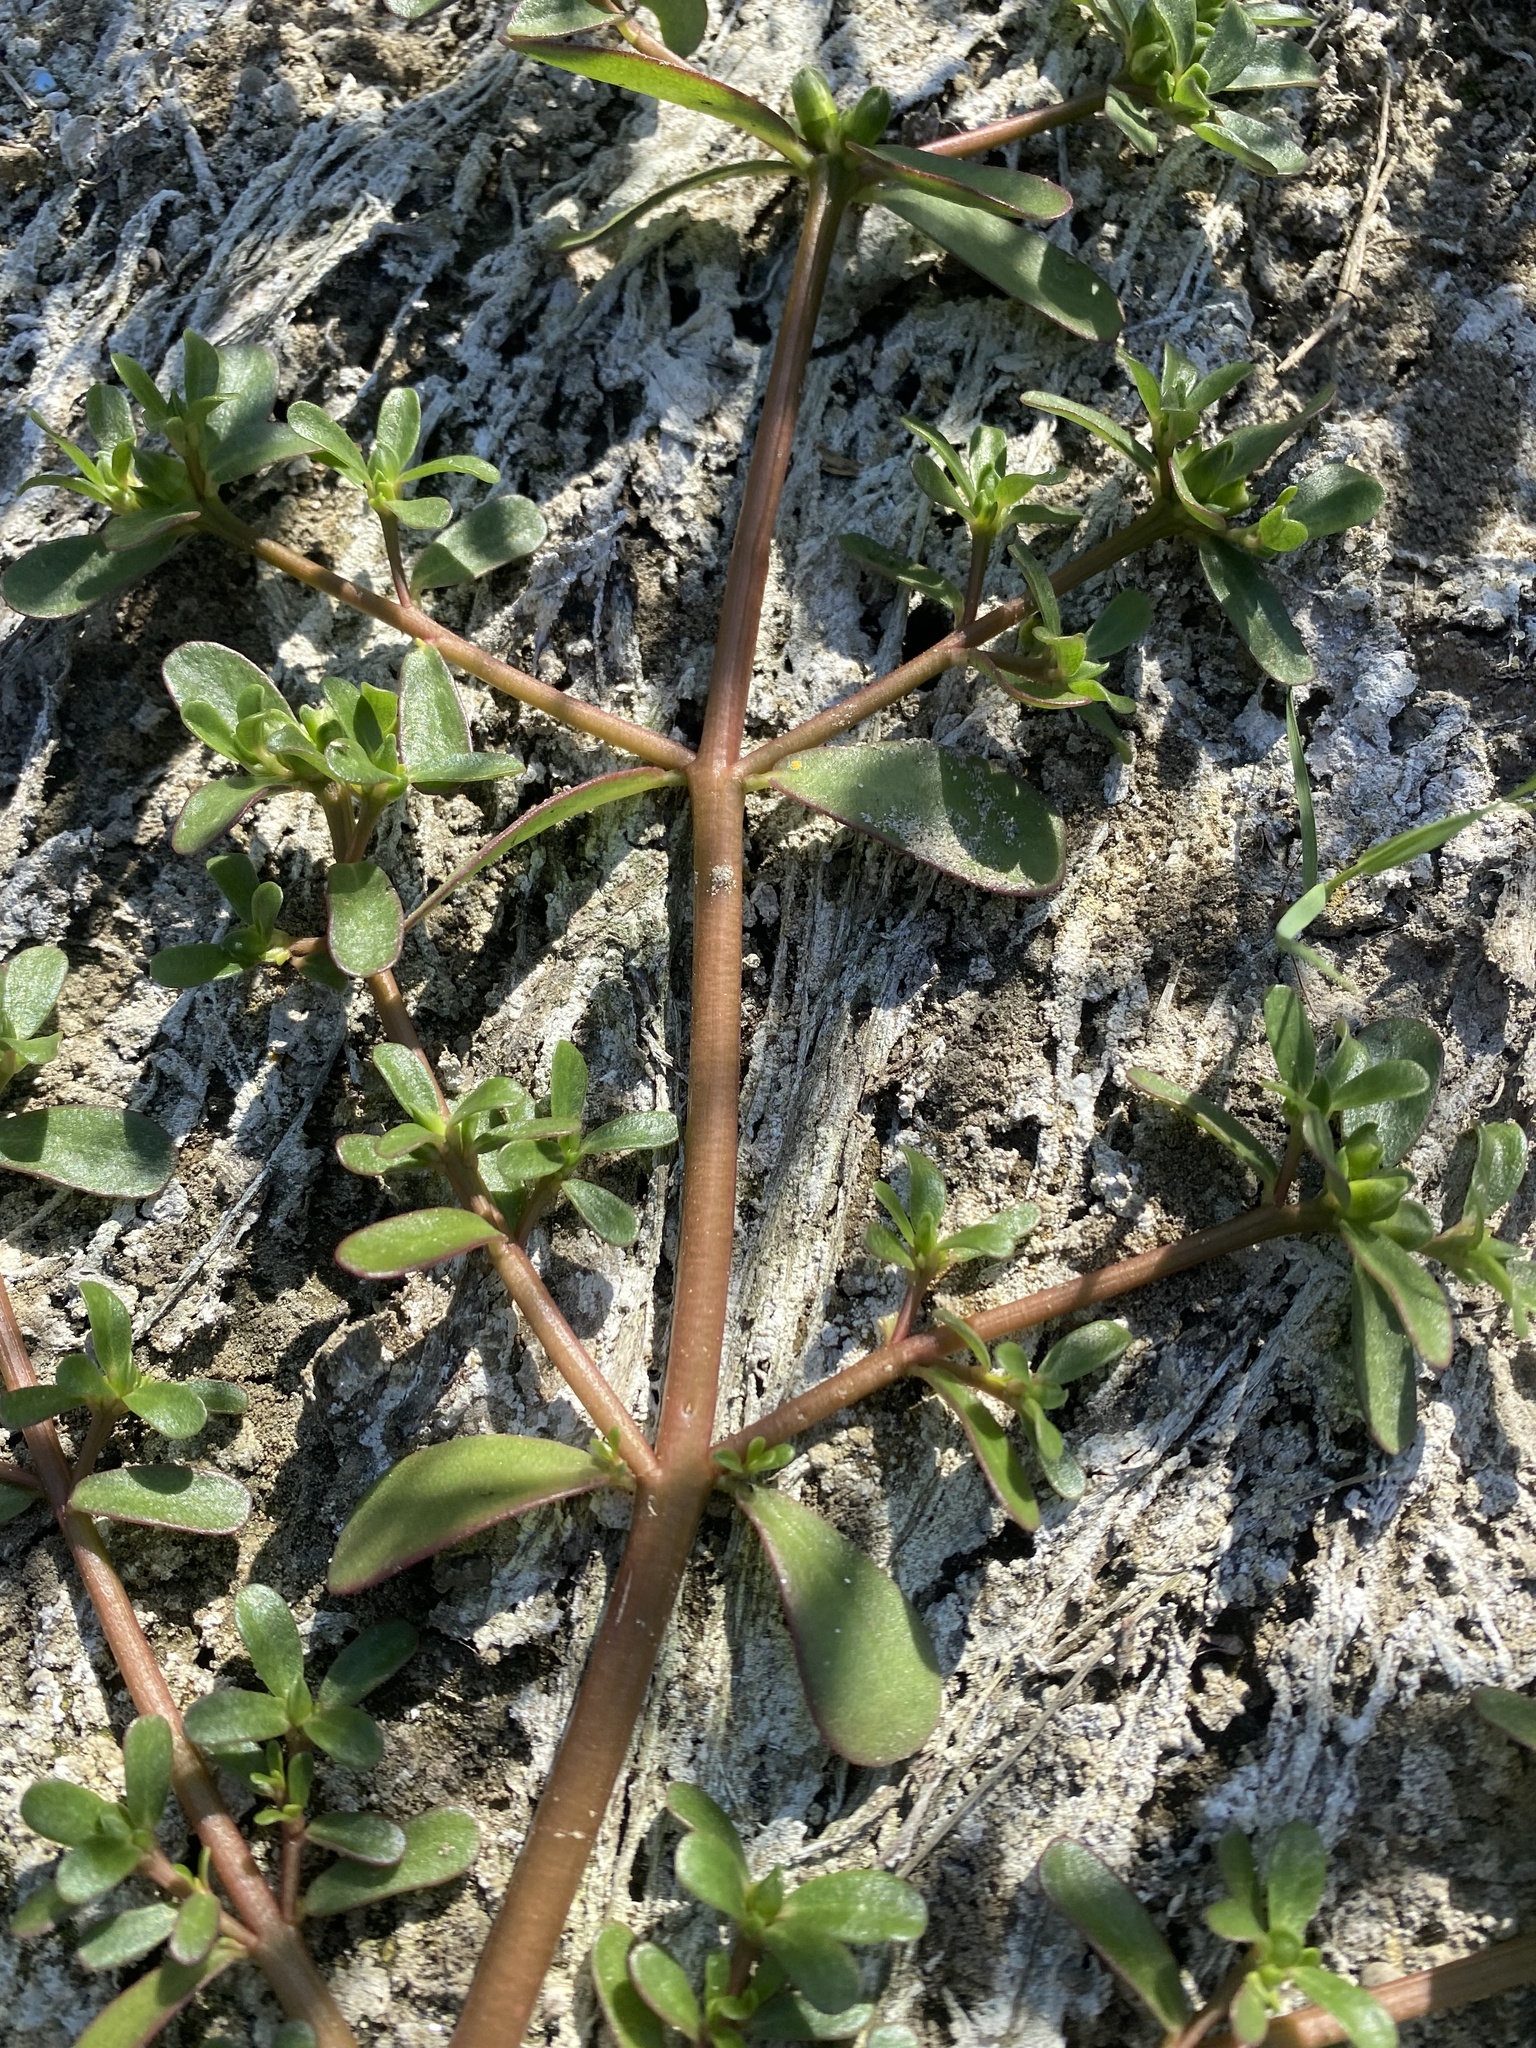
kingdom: Plantae
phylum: Tracheophyta
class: Magnoliopsida
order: Caryophyllales
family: Portulacaceae
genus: Portulaca
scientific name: Portulaca oleracea
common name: Common purslane
